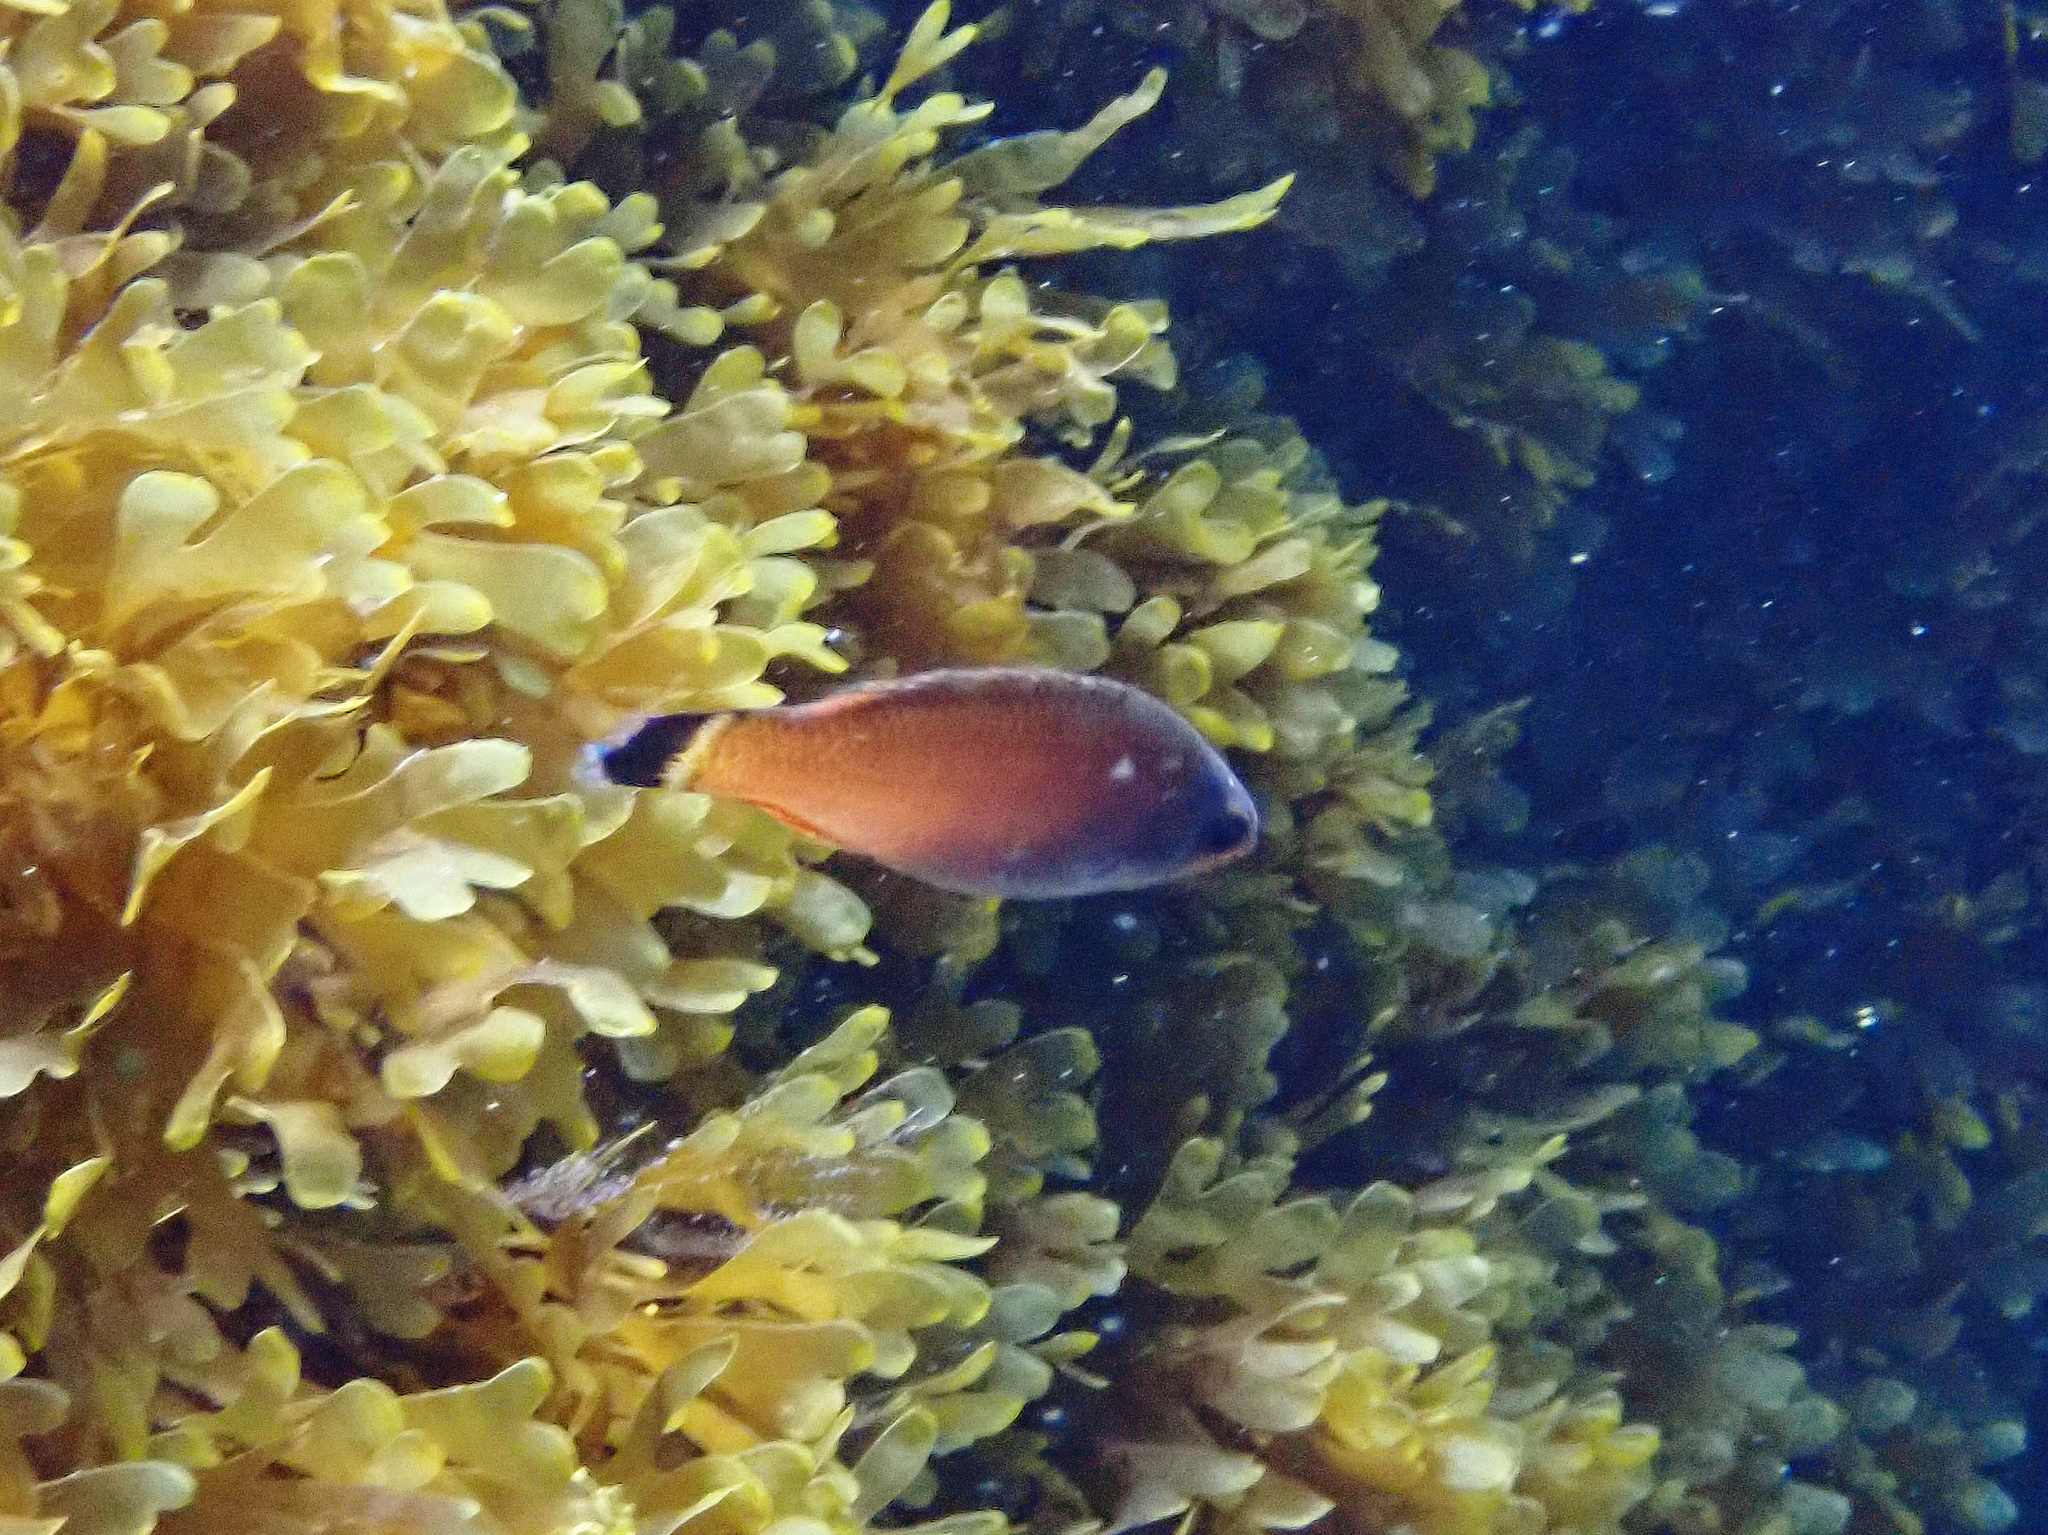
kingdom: Animalia
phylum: Chordata
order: Perciformes
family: Labridae
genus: Centrolabrus
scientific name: Centrolabrus melanocercus
